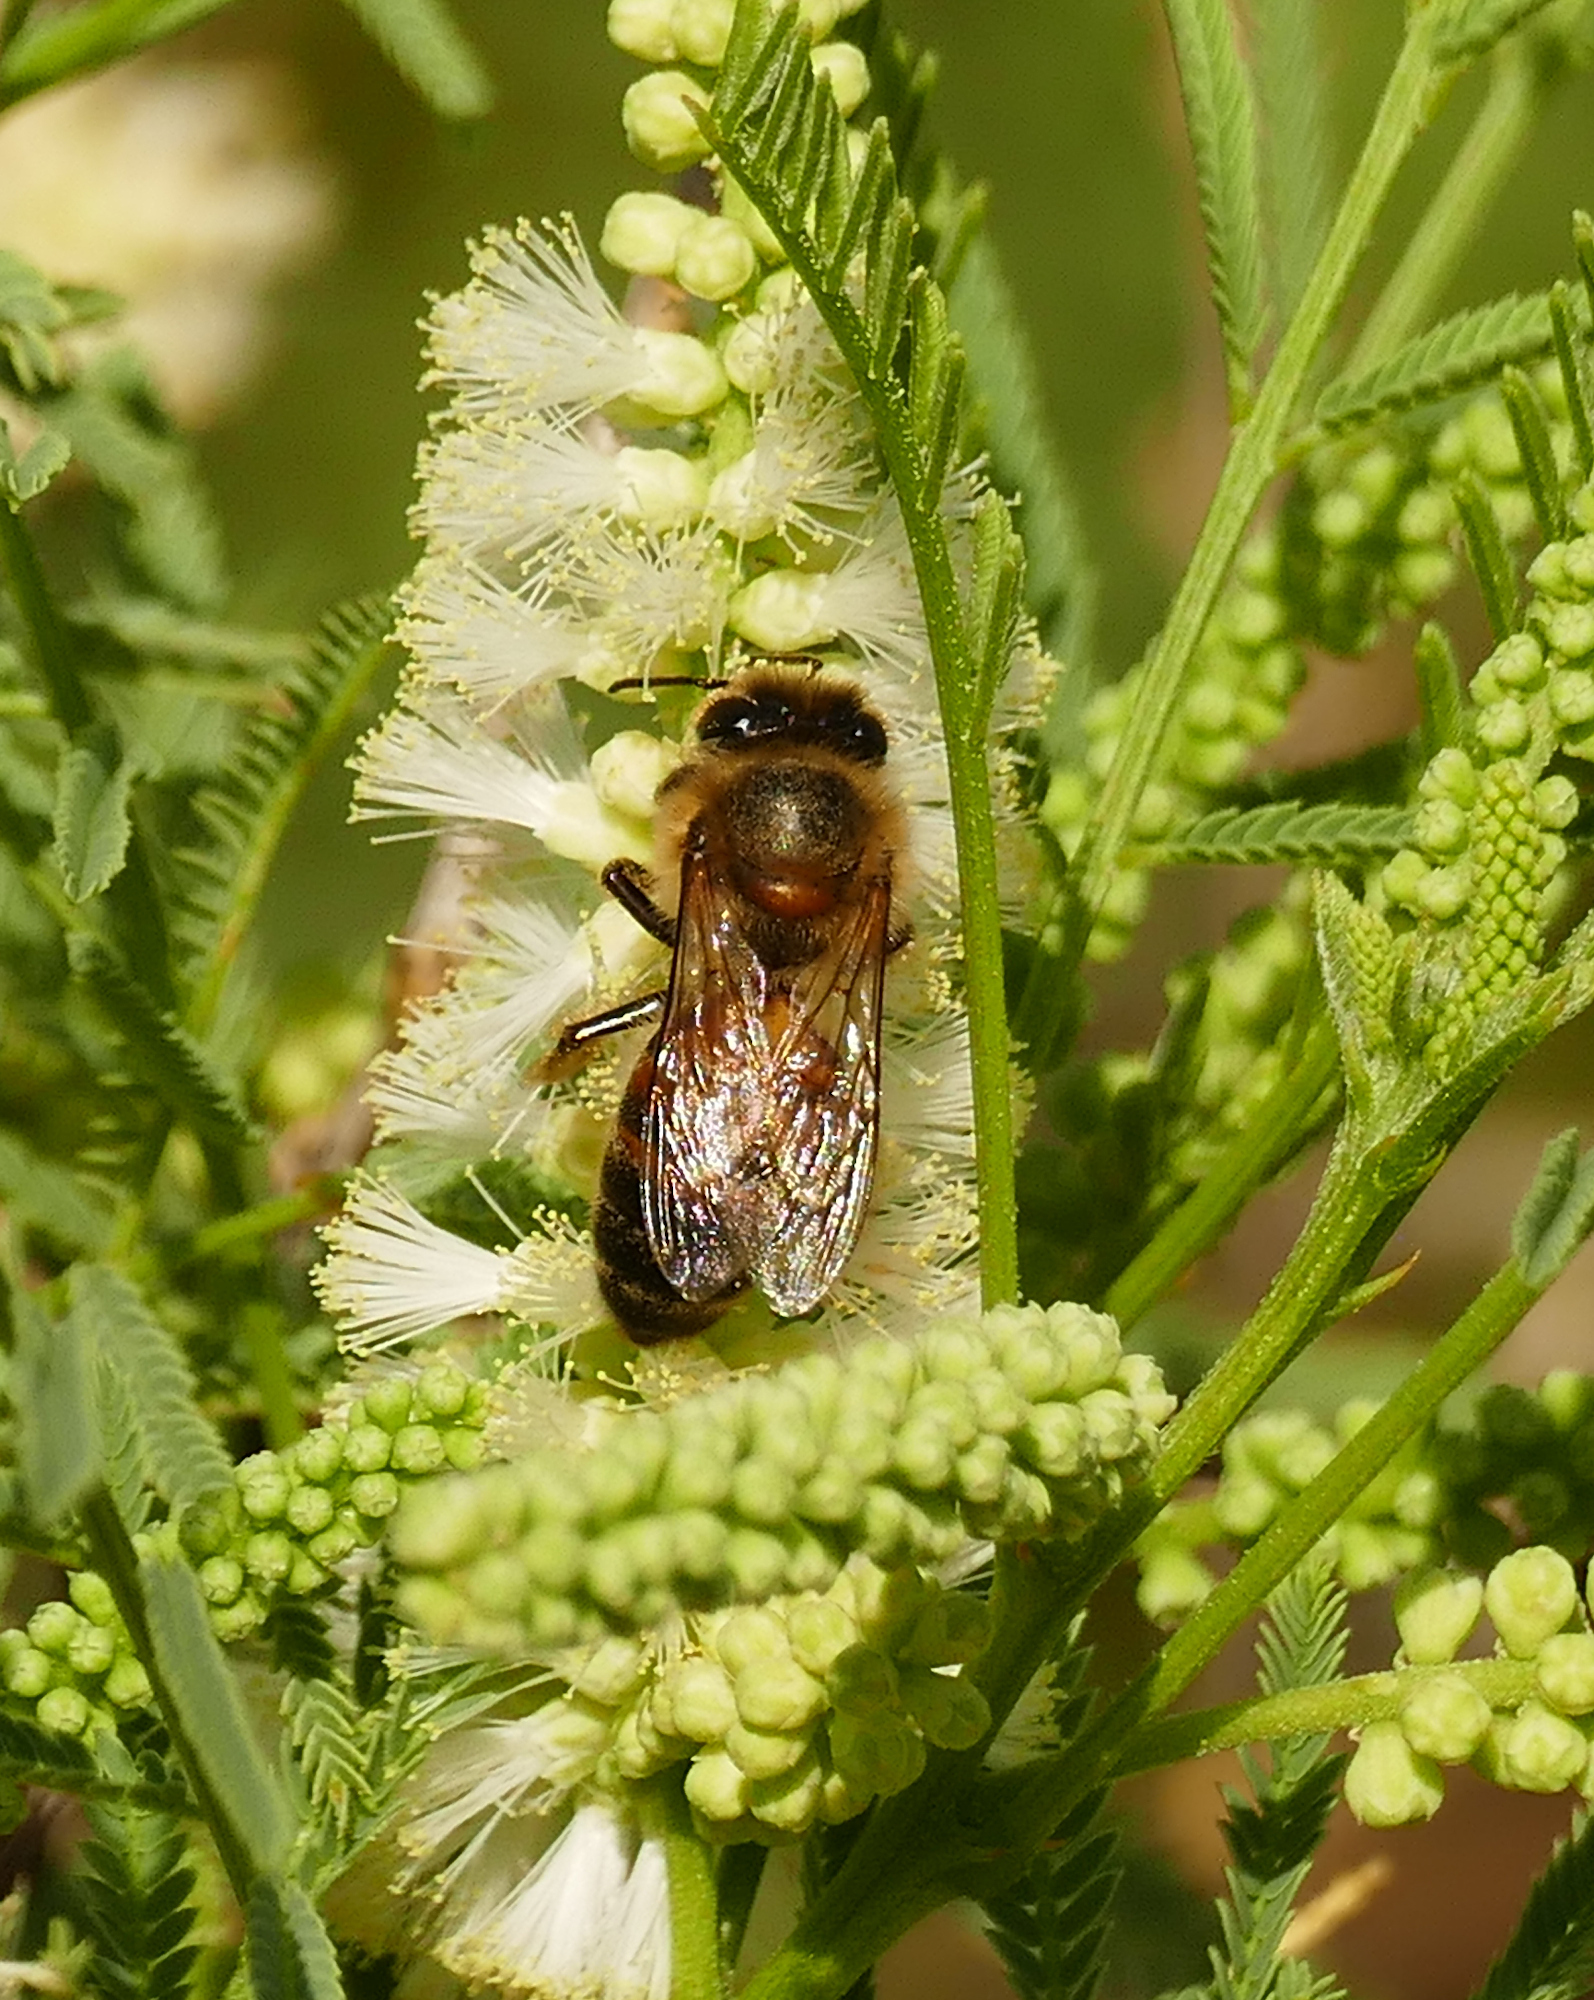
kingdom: Animalia
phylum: Arthropoda
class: Insecta
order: Hymenoptera
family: Apidae
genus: Apis
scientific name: Apis mellifera
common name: Honey bee
